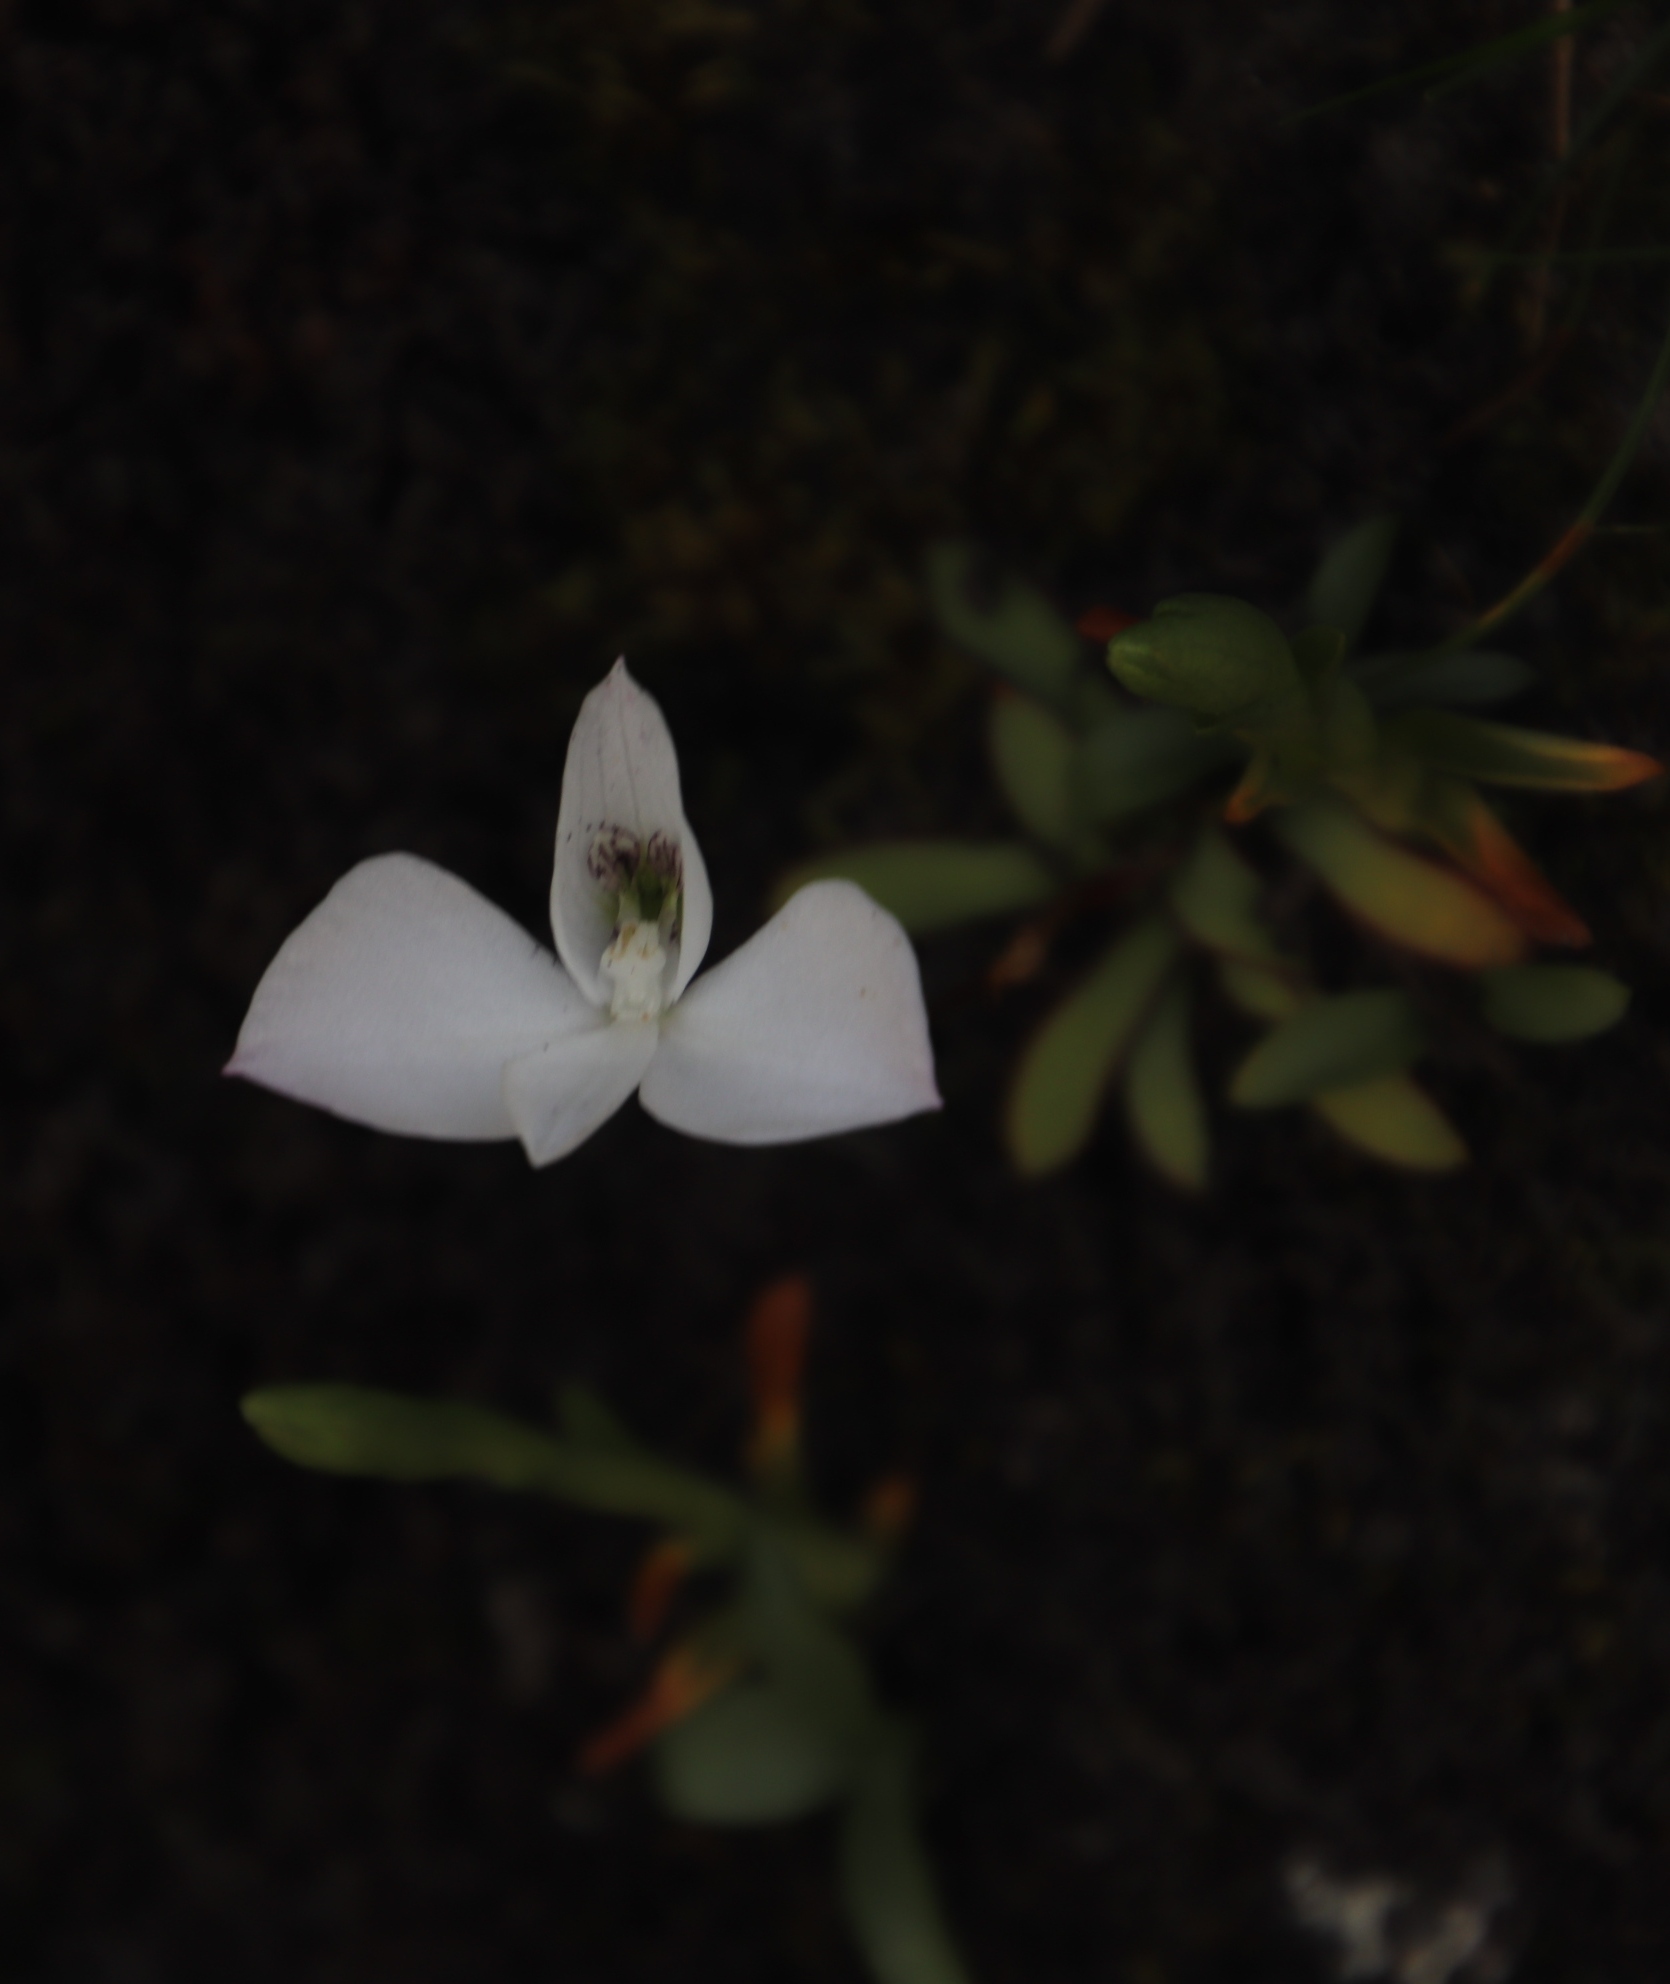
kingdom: Plantae
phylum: Tracheophyta
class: Liliopsida
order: Asparagales
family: Orchidaceae
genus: Disa
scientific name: Disa virginalis
